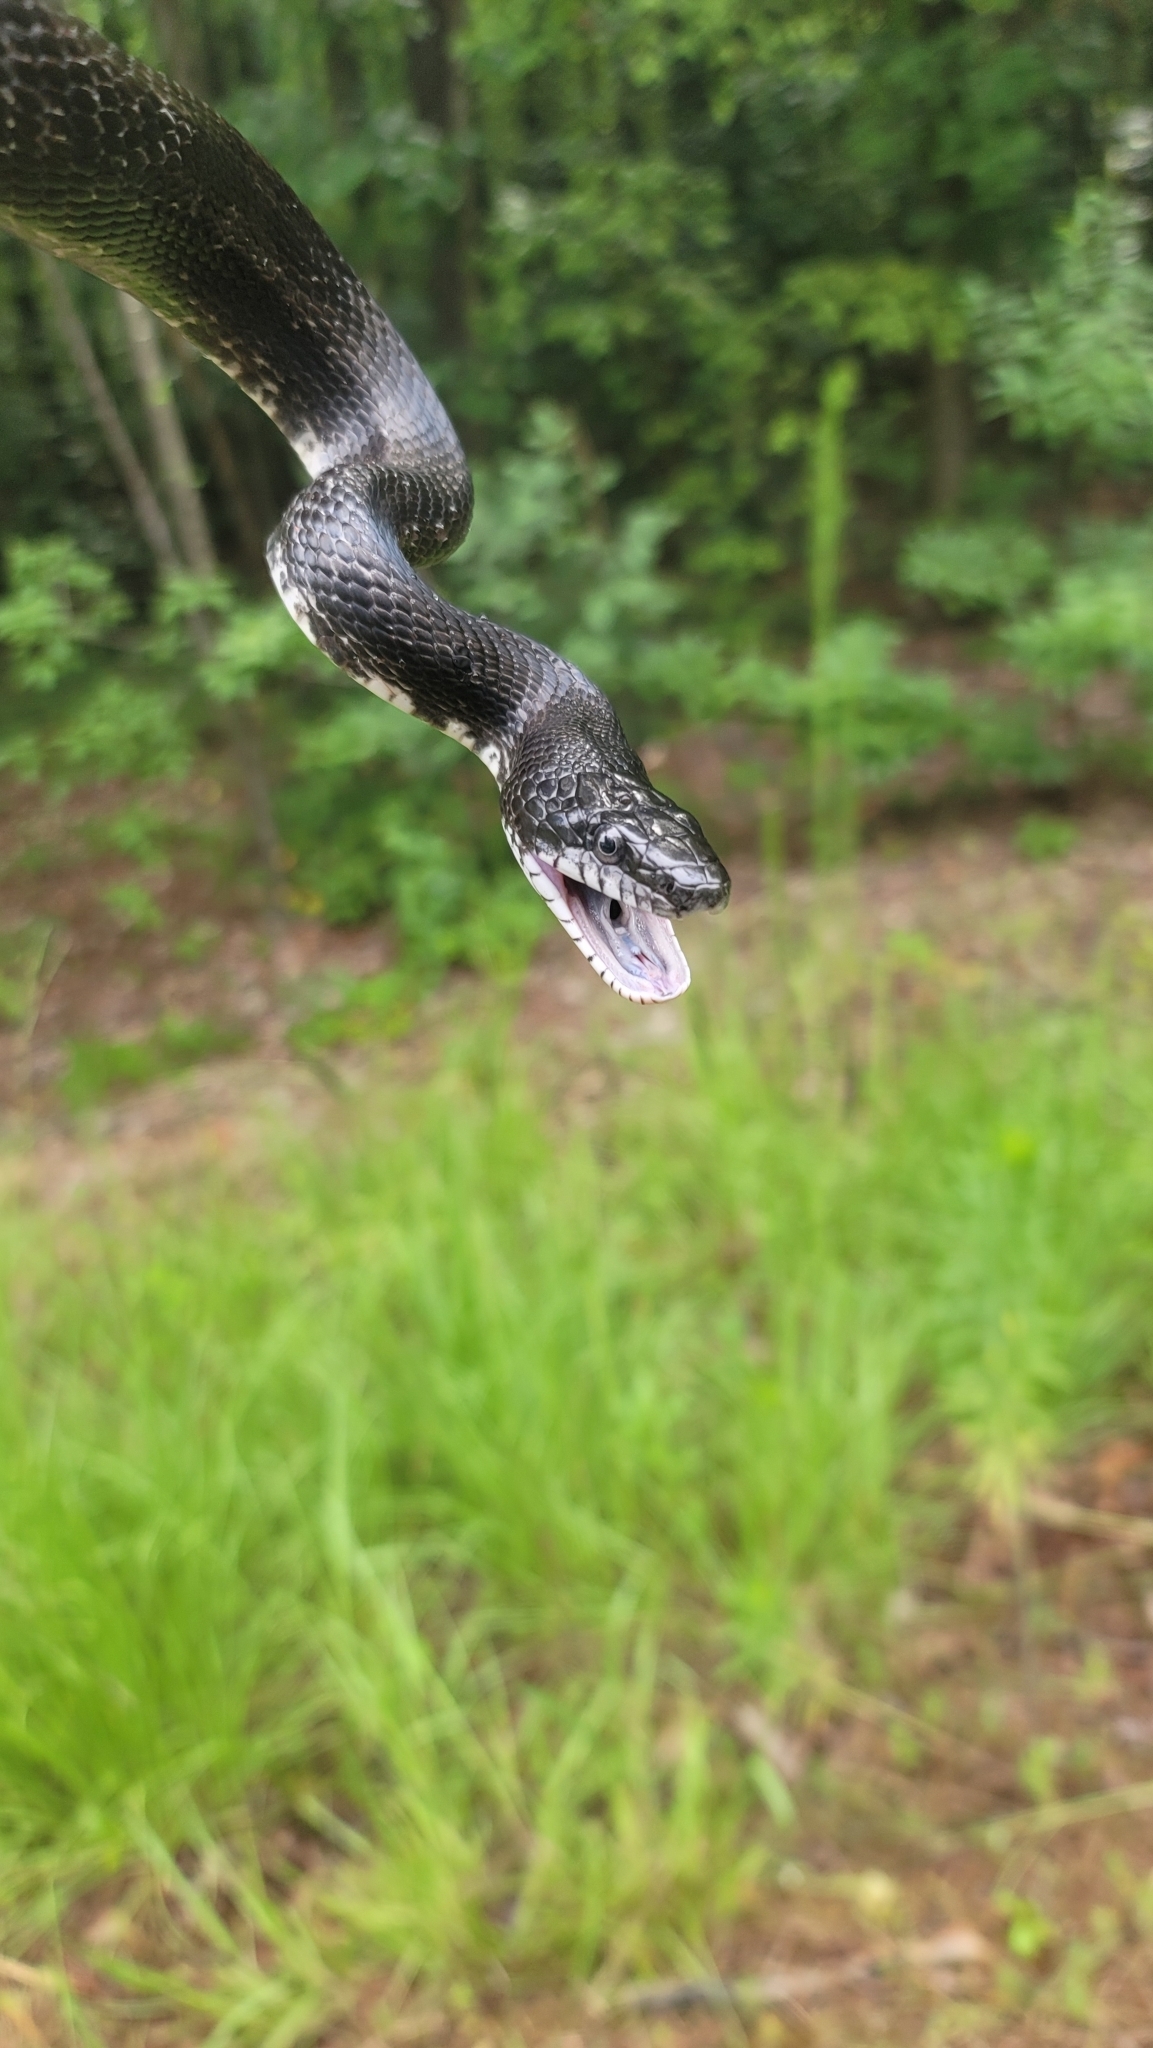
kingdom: Animalia
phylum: Chordata
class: Squamata
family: Colubridae
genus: Pantherophis
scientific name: Pantherophis alleghaniensis
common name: Eastern rat snake
